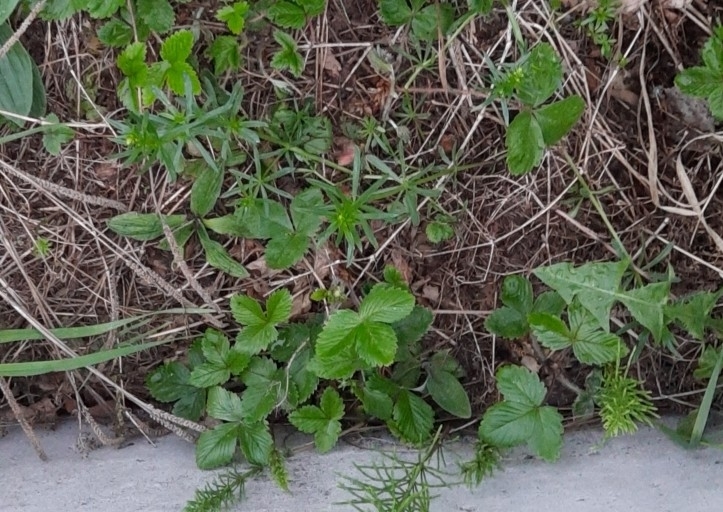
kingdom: Plantae
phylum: Tracheophyta
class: Magnoliopsida
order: Rosales
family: Rosaceae
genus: Fragaria
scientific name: Fragaria vesca
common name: Wild strawberry
